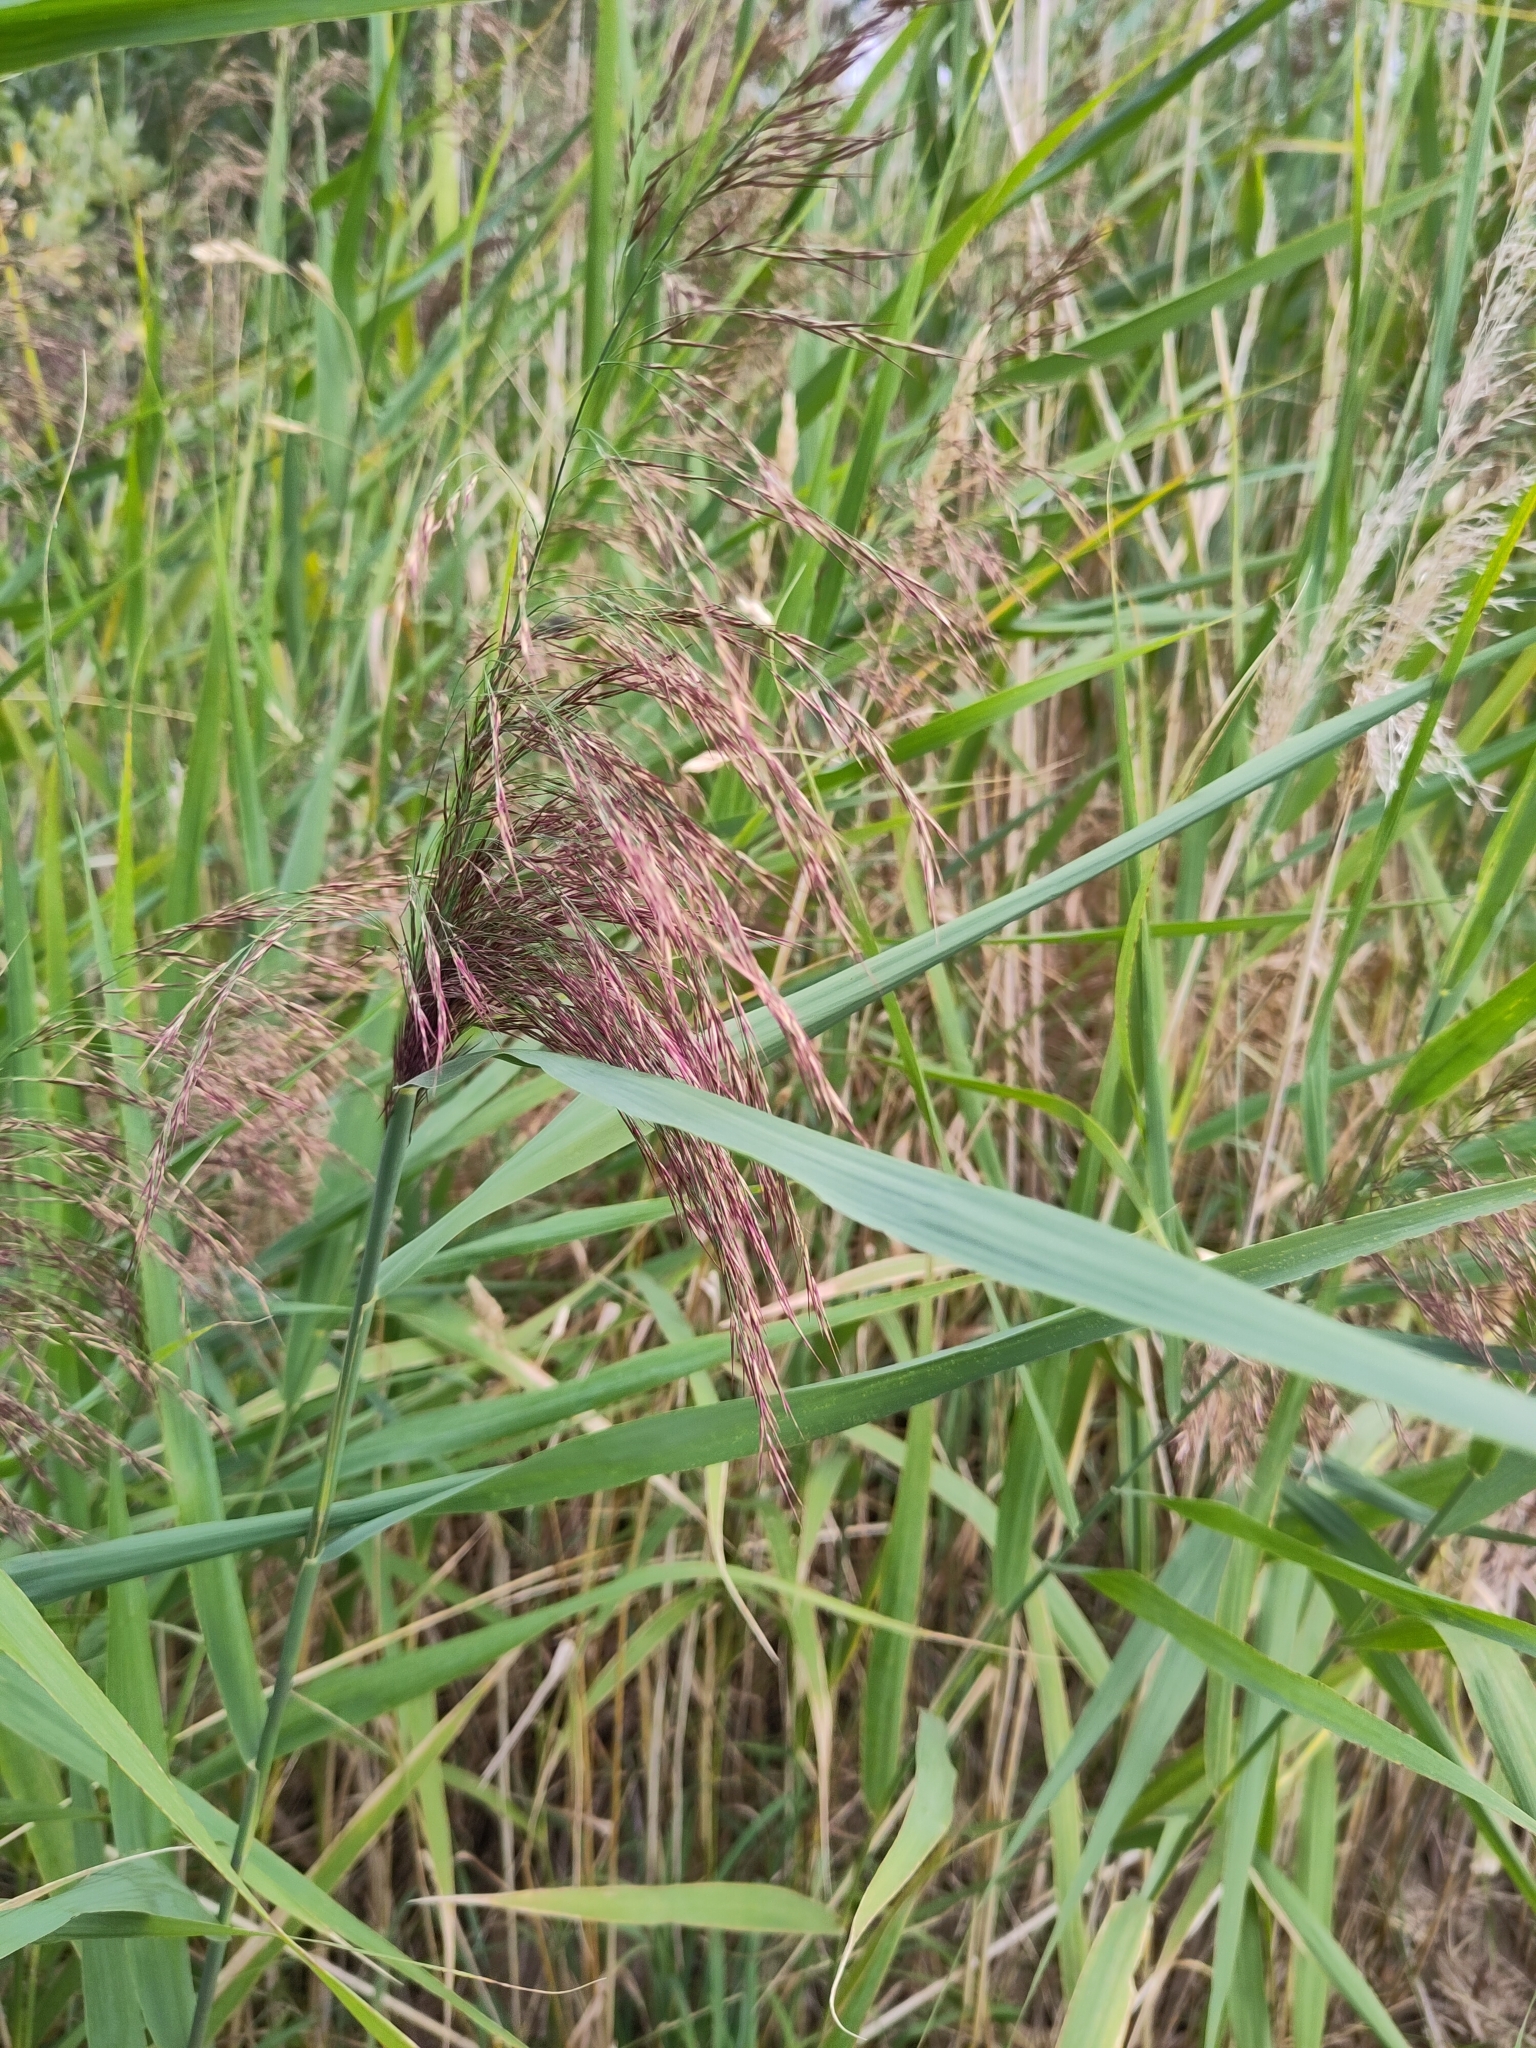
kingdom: Plantae
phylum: Tracheophyta
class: Liliopsida
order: Poales
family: Poaceae
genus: Phragmites
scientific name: Phragmites australis
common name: Common reed
